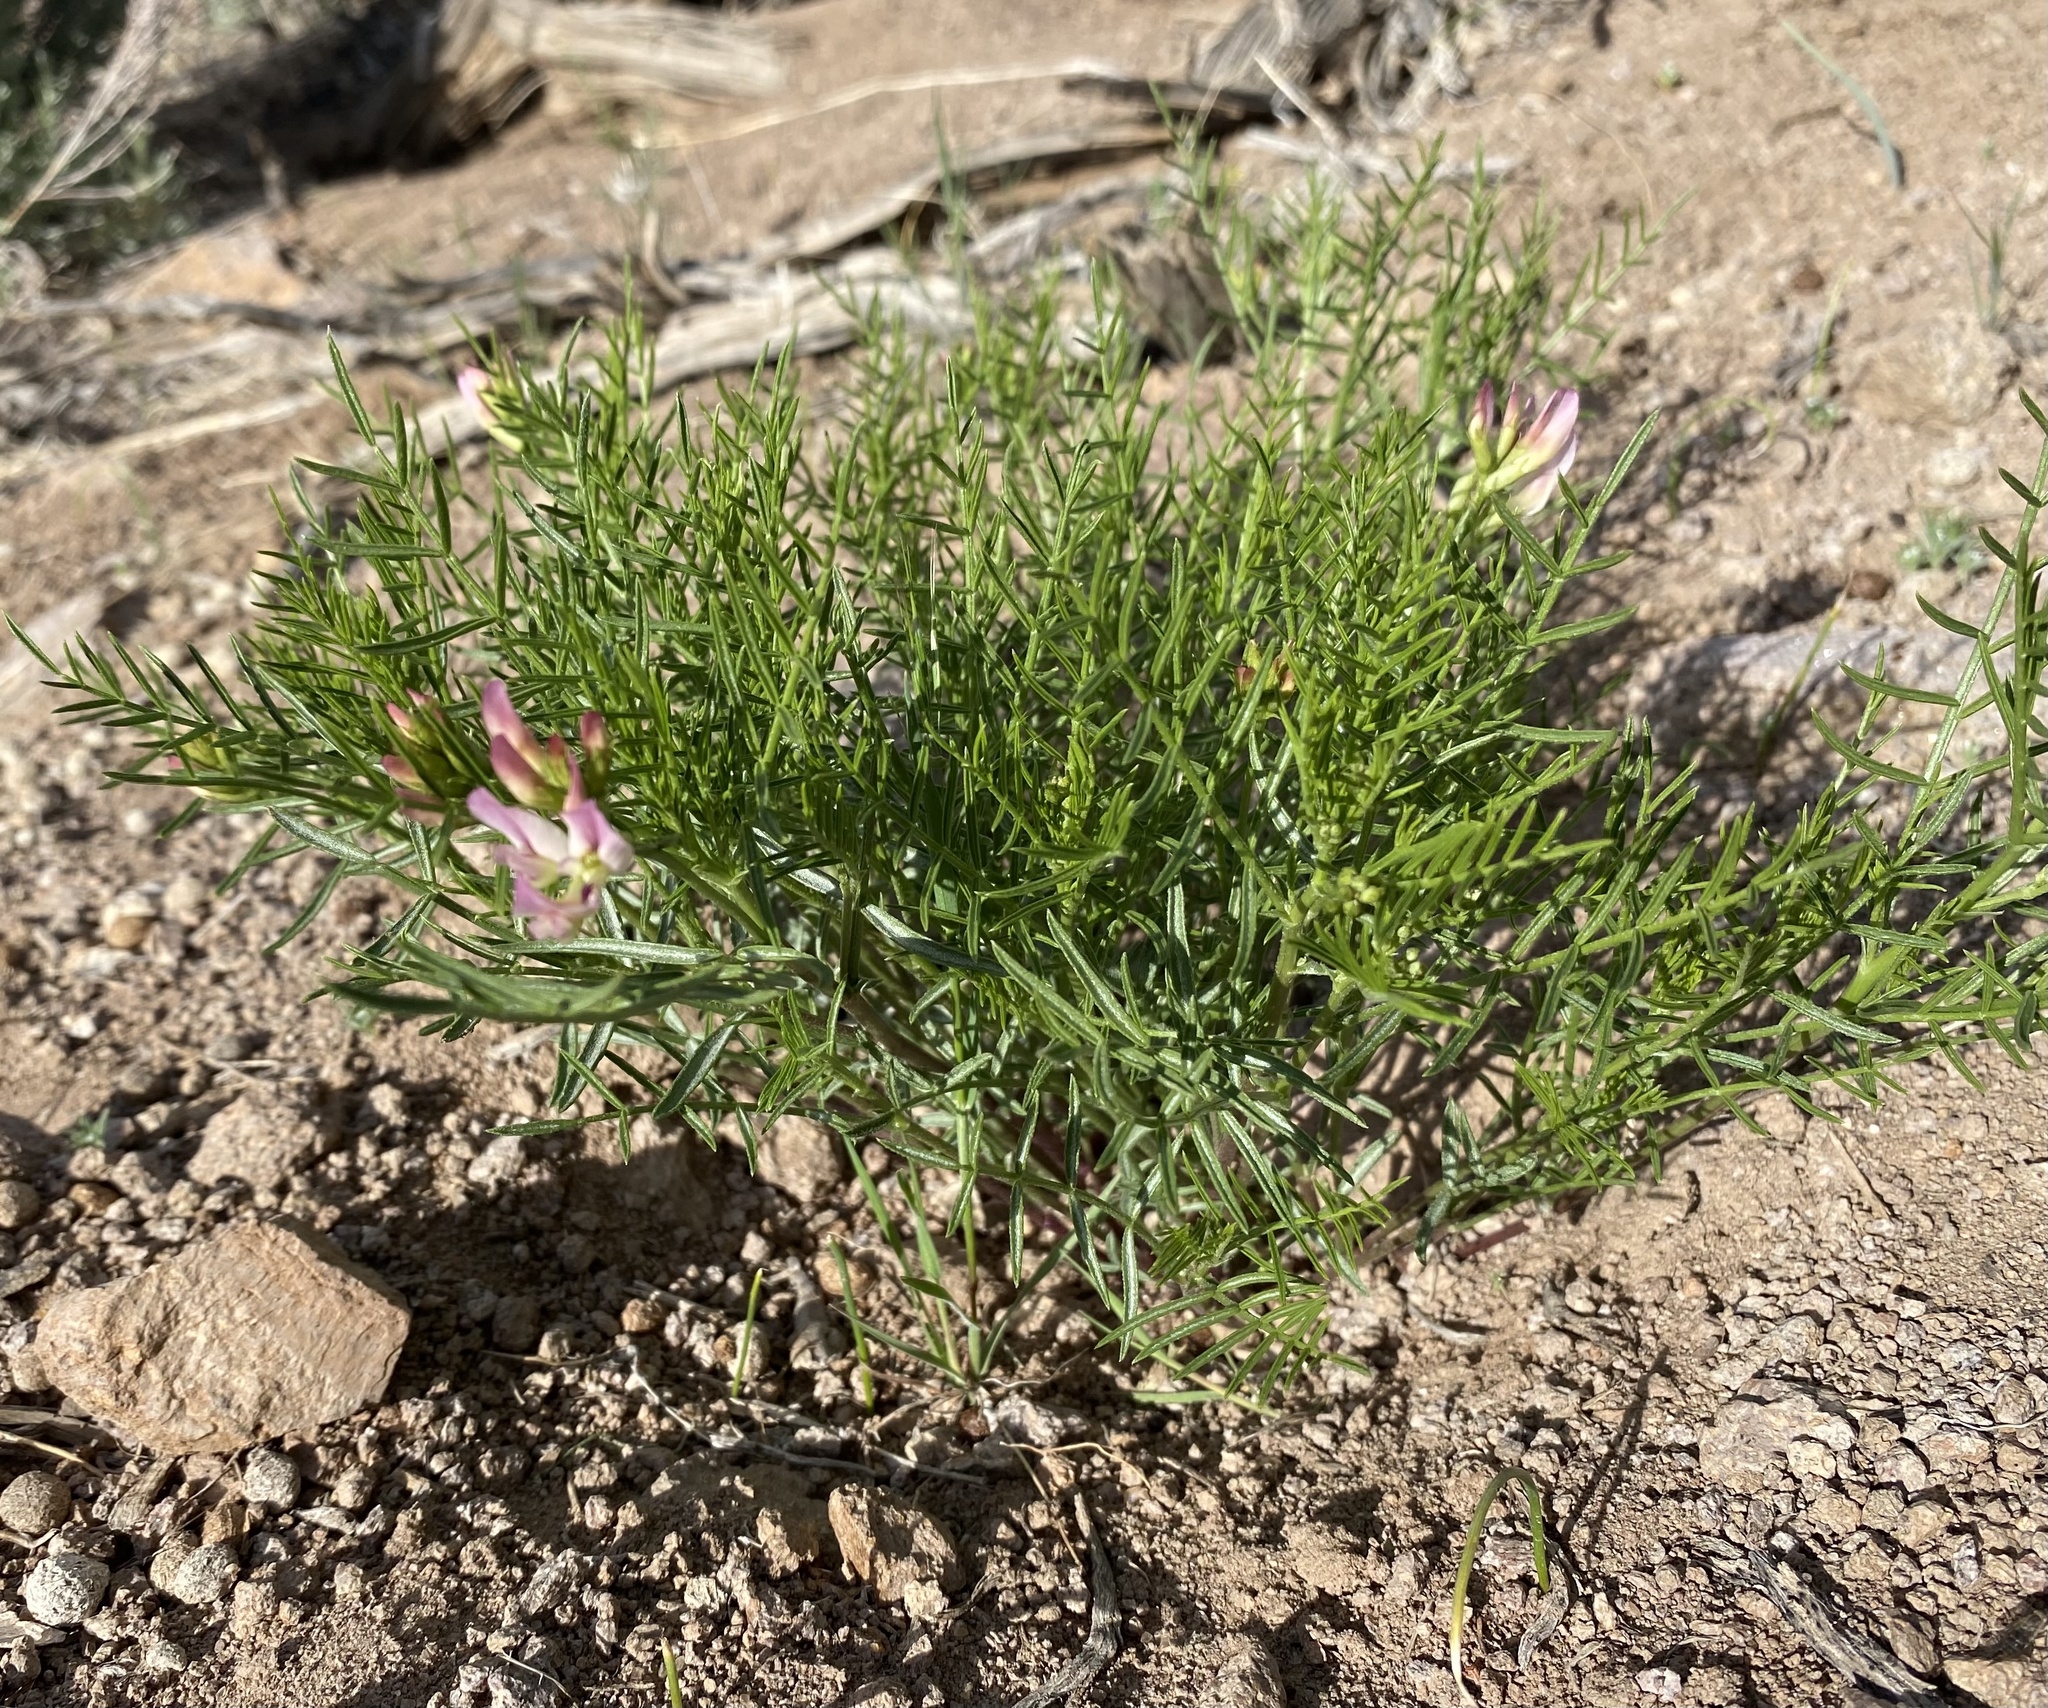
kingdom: Plantae
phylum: Tracheophyta
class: Magnoliopsida
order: Fabales
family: Fabaceae
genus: Astragalus
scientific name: Astragalus tetrapterus
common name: Four-wing milk-vetch
